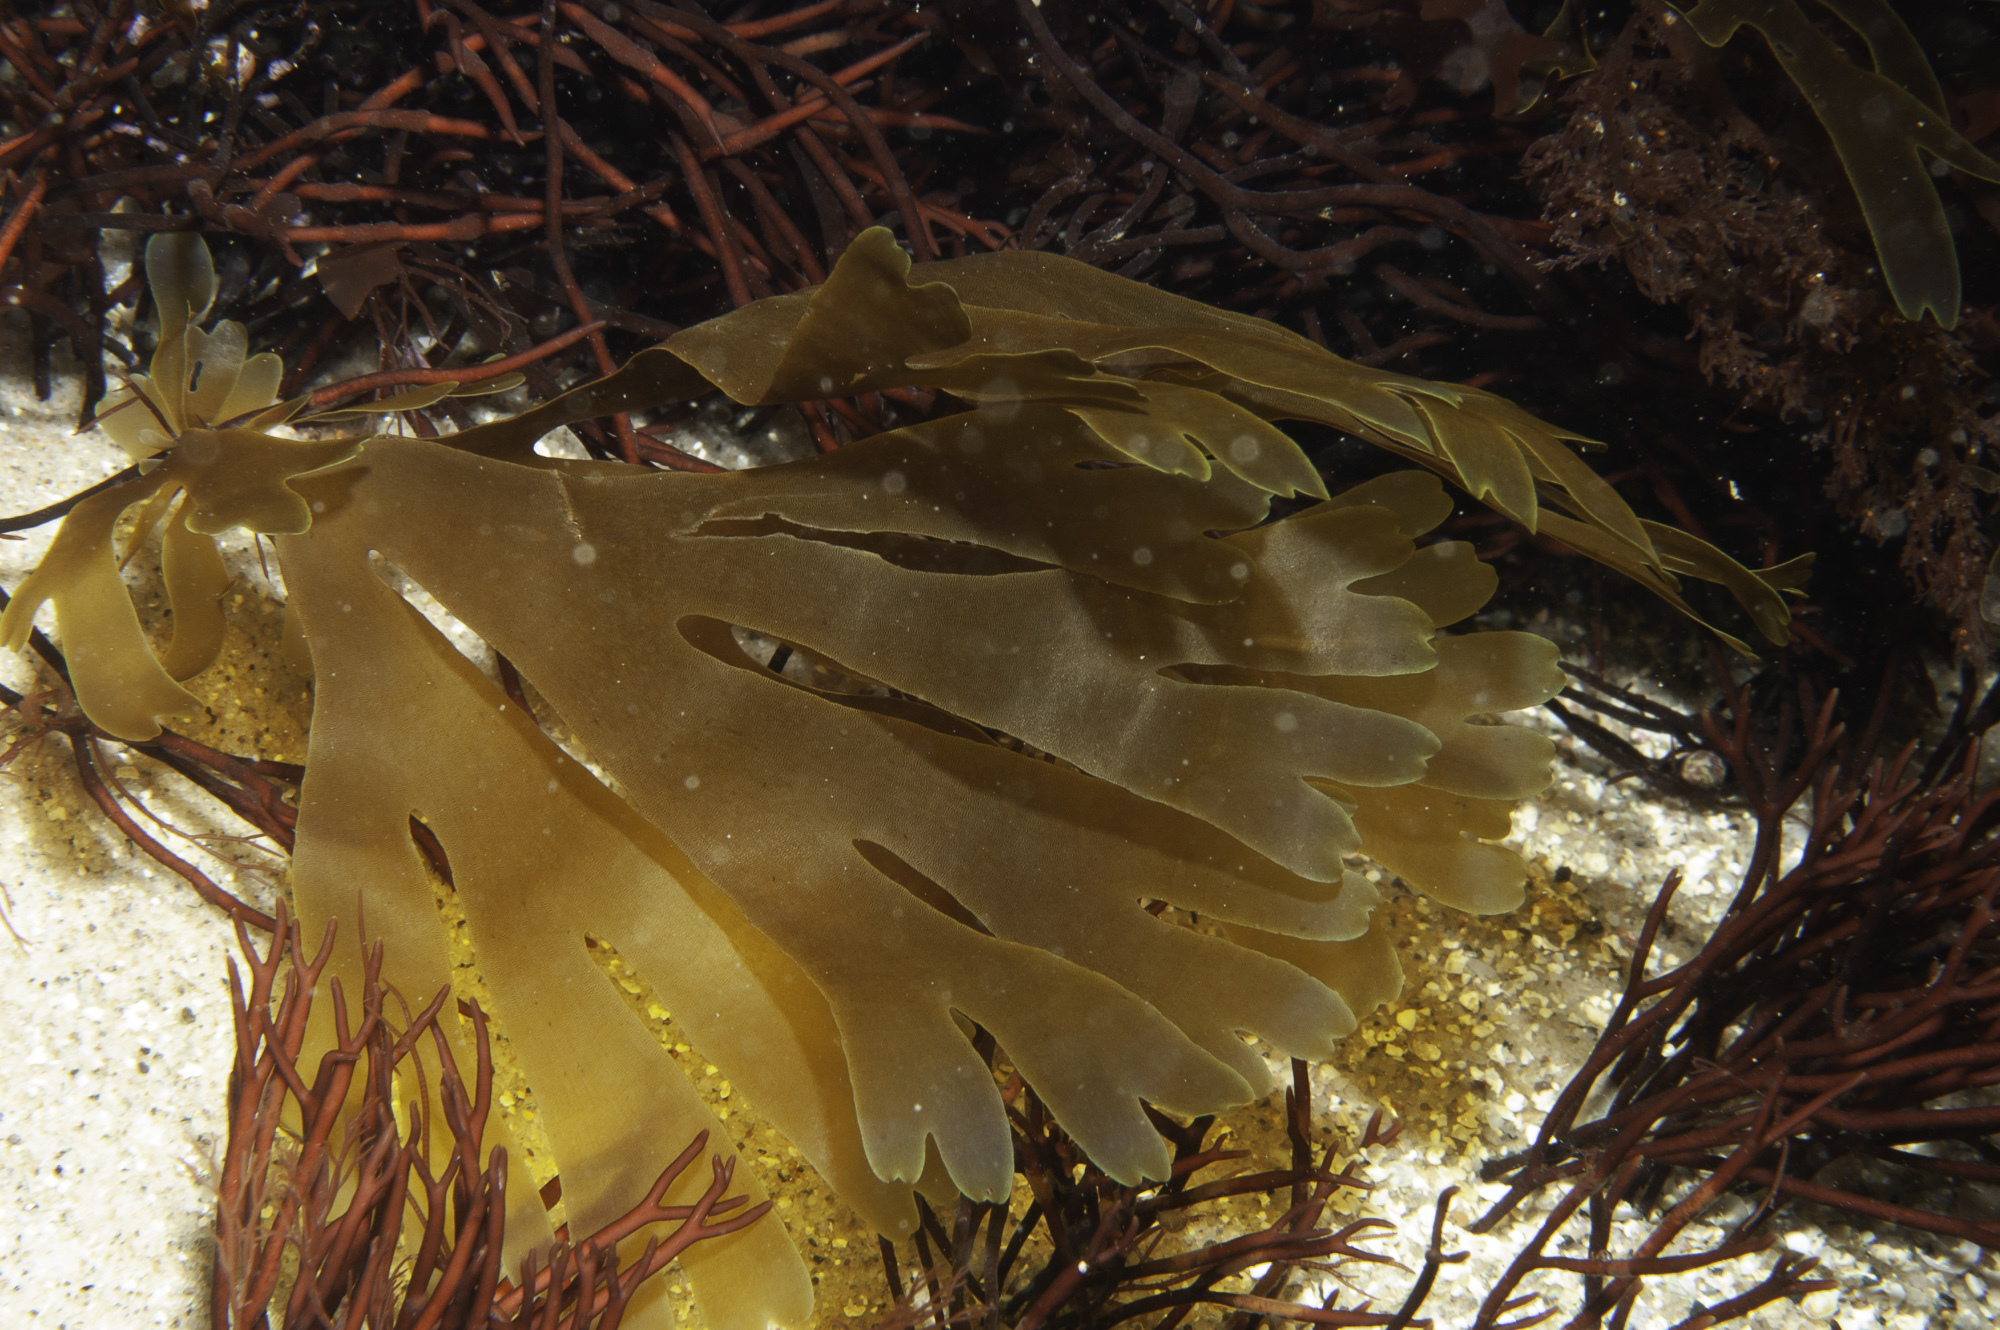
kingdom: Chromista
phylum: Ochrophyta
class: Phaeophyceae
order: Dictyotales
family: Dictyotaceae
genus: Dictyota
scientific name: Dictyota dichotoma
